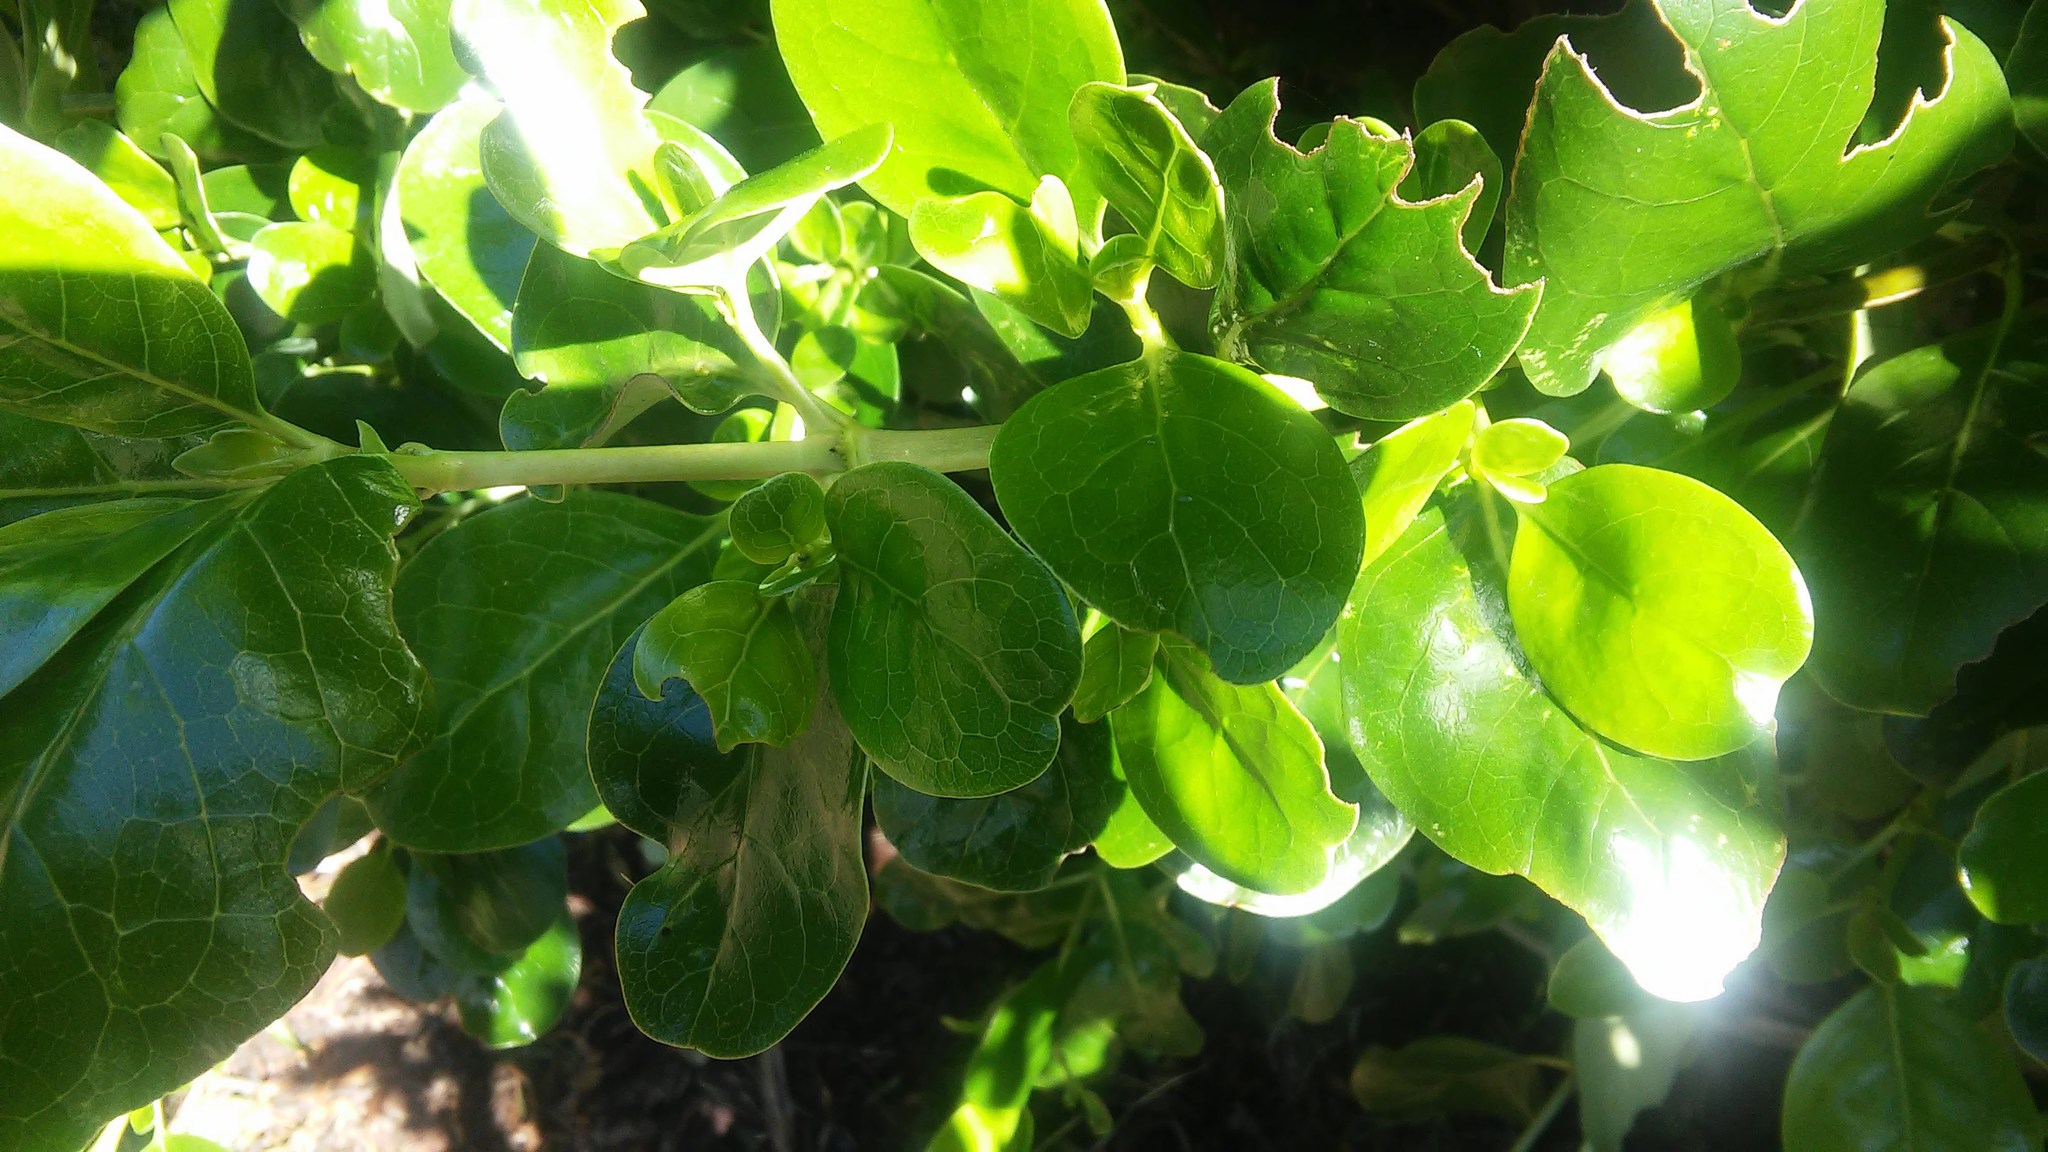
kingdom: Plantae
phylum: Tracheophyta
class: Magnoliopsida
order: Gentianales
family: Rubiaceae
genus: Coprosma
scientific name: Coprosma repens
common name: Tree bedstraw
